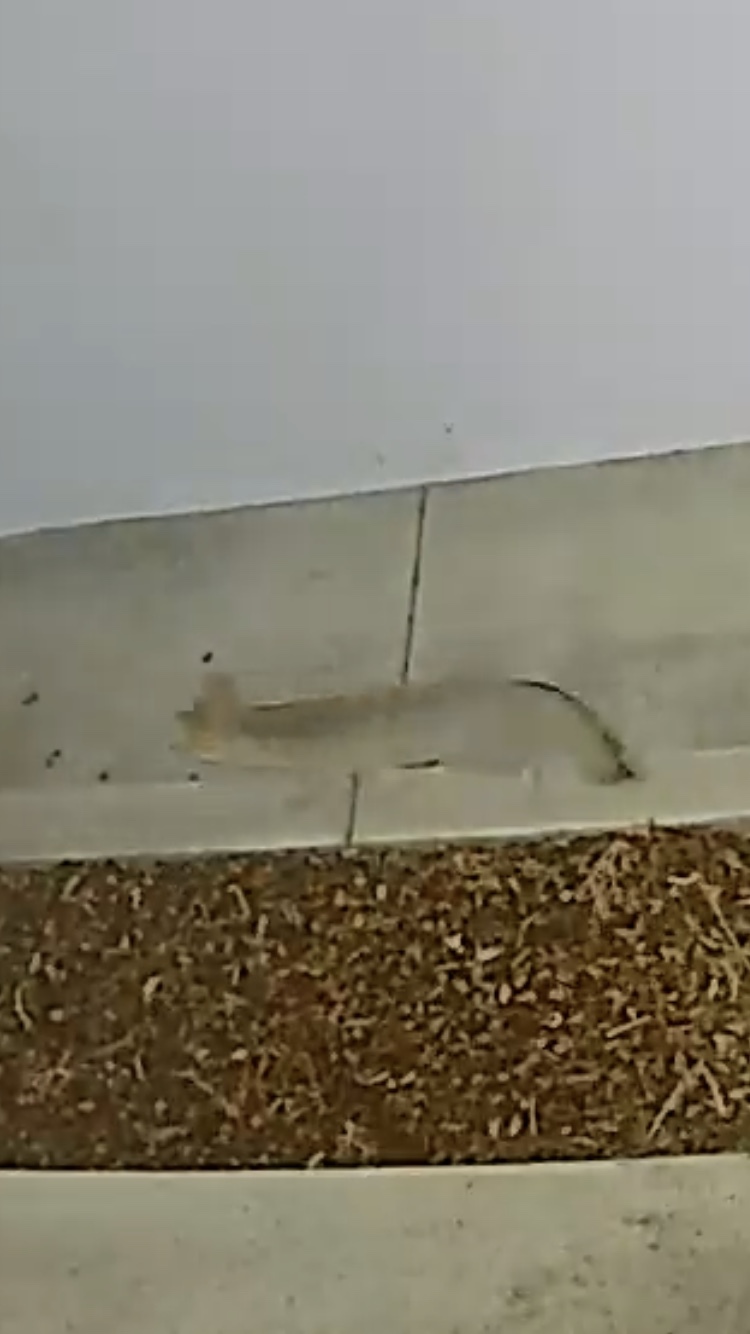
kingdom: Animalia
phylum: Chordata
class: Mammalia
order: Carnivora
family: Canidae
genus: Urocyon
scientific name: Urocyon cinereoargenteus
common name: Gray fox
